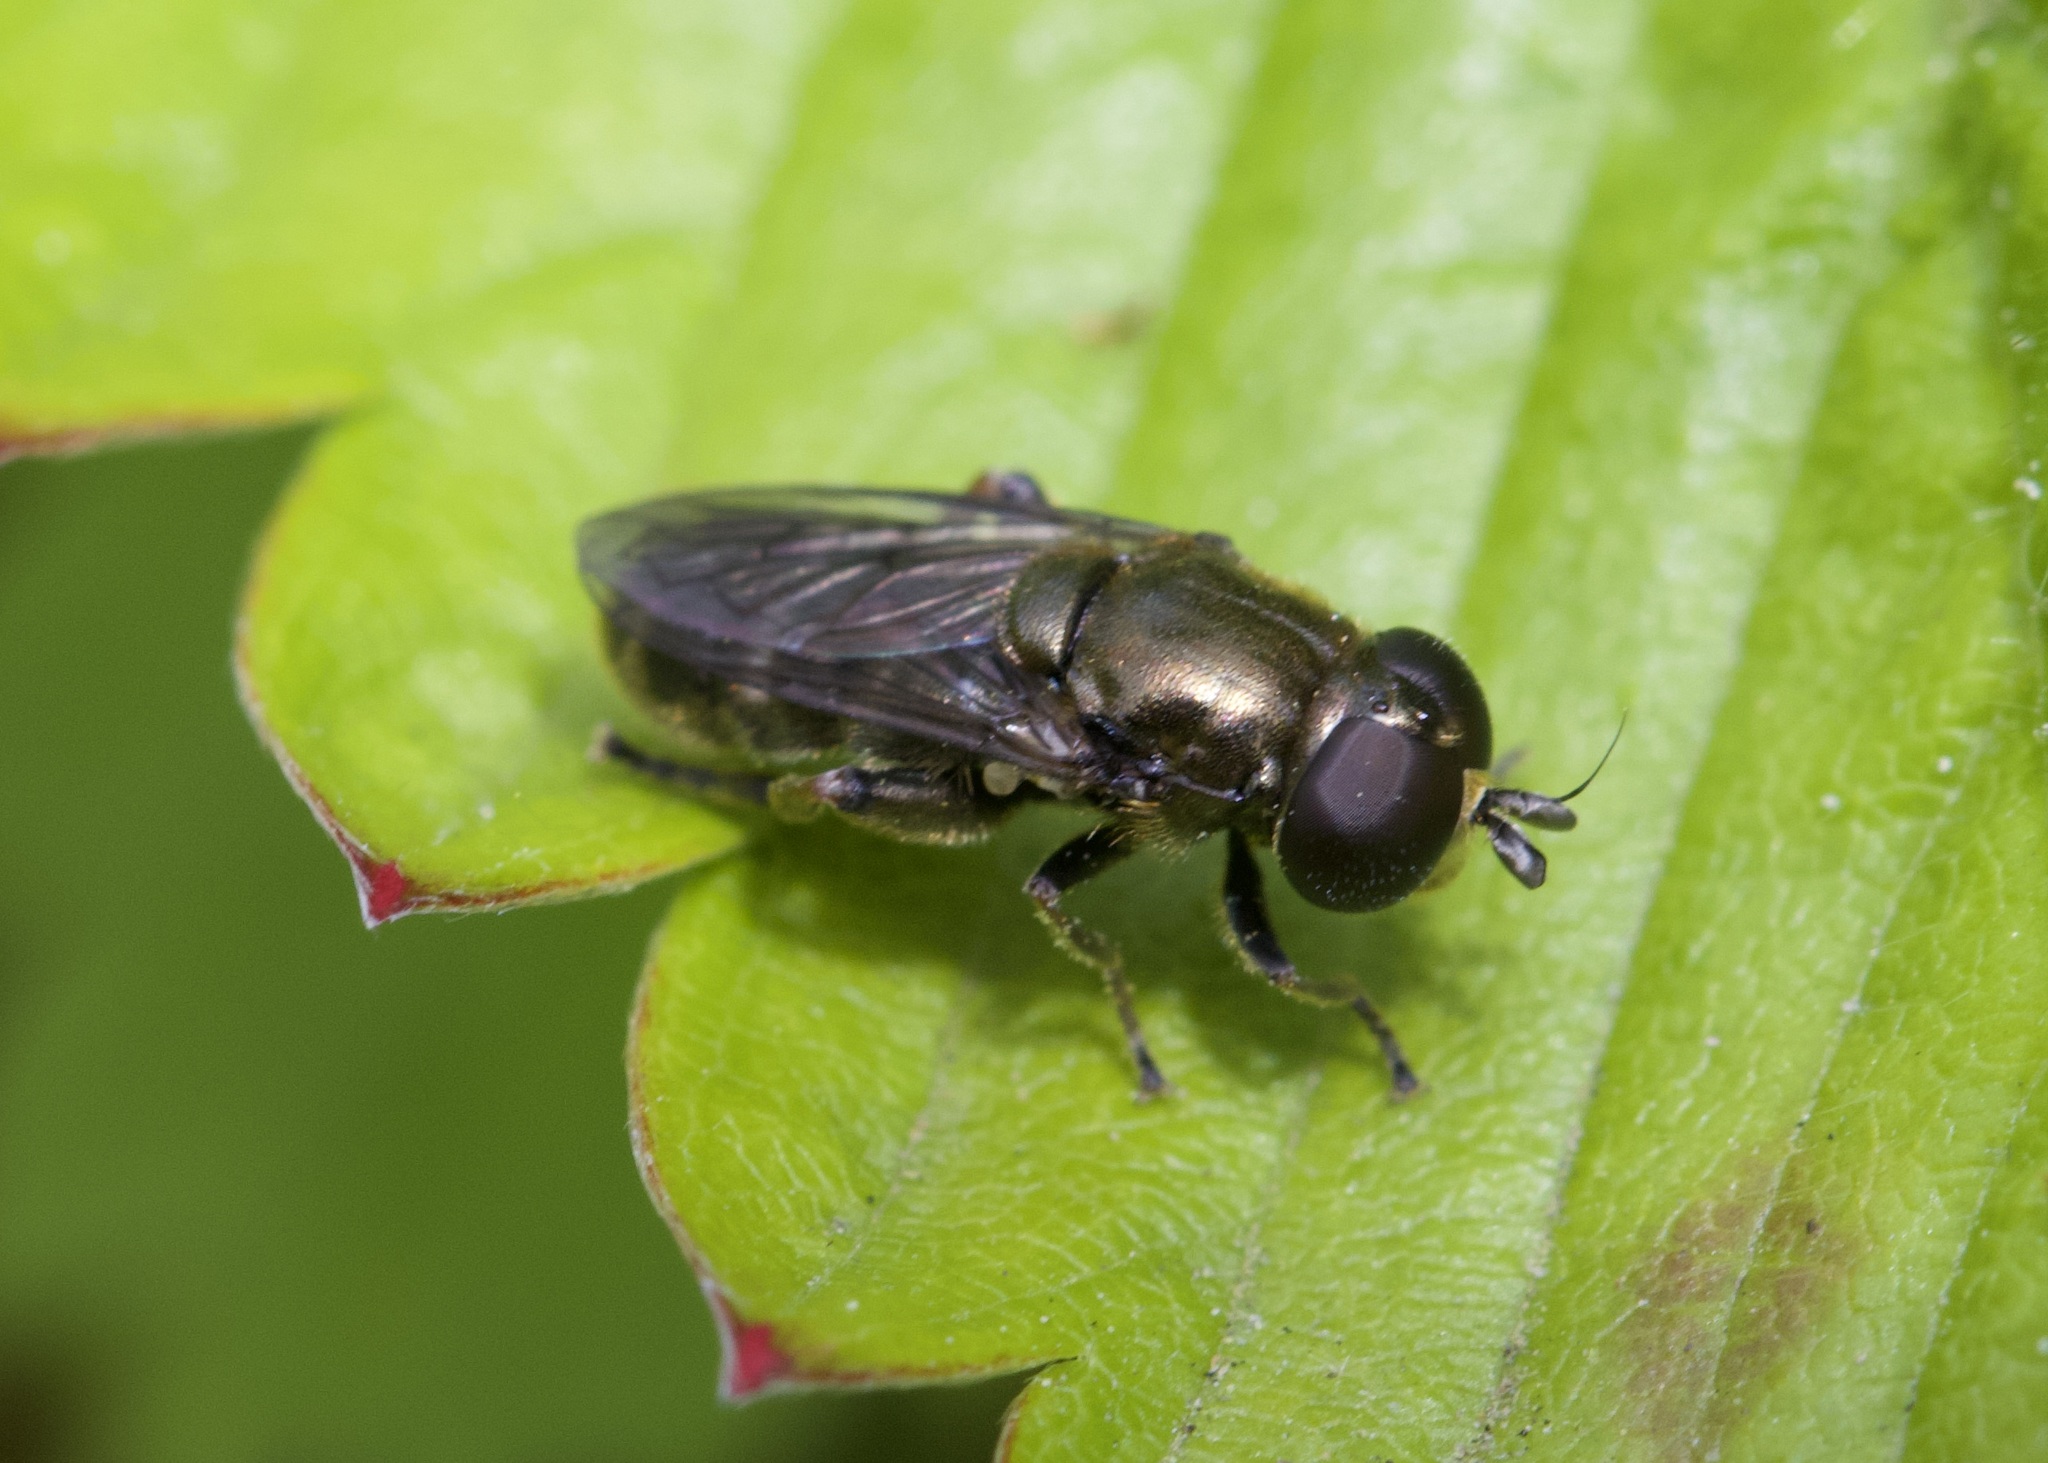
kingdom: Animalia
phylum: Arthropoda
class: Insecta
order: Diptera
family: Syrphidae
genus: Eumerus
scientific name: Eumerus
